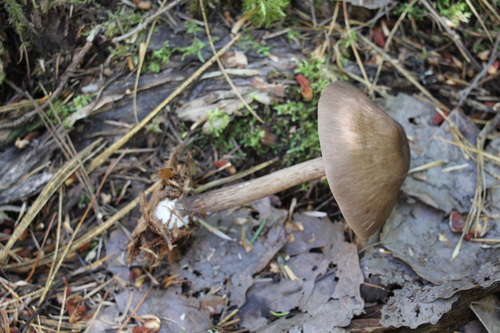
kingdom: Fungi
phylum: Basidiomycota
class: Agaricomycetes
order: Agaricales
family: Pluteaceae
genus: Pluteus
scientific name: Pluteus
